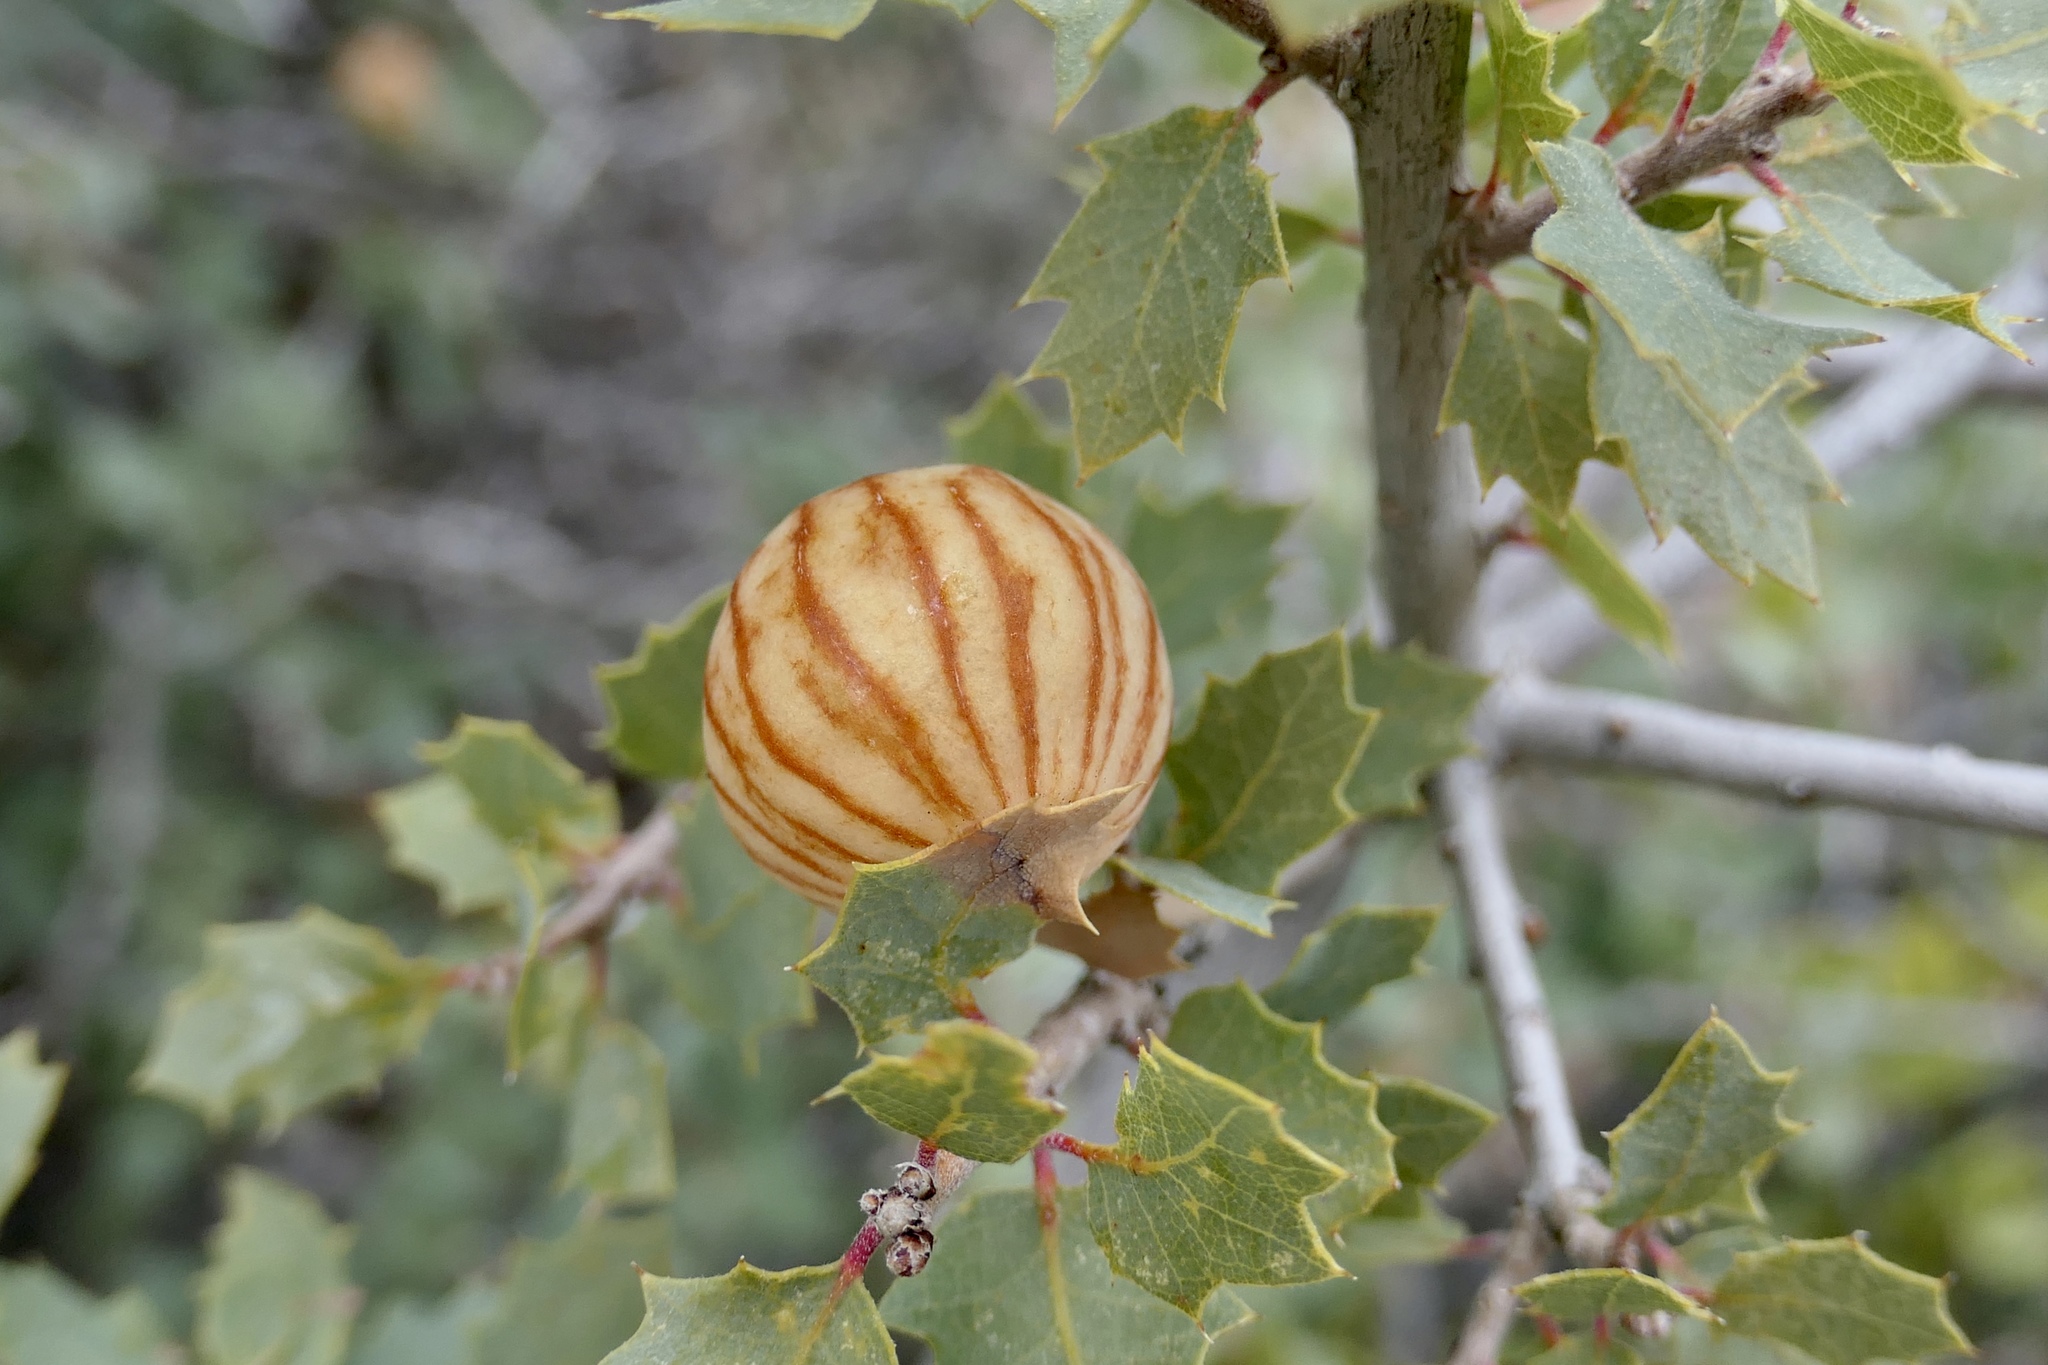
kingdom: Animalia
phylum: Arthropoda
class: Insecta
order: Hymenoptera
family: Cynipidae
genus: Atrusca
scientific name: Atrusca
